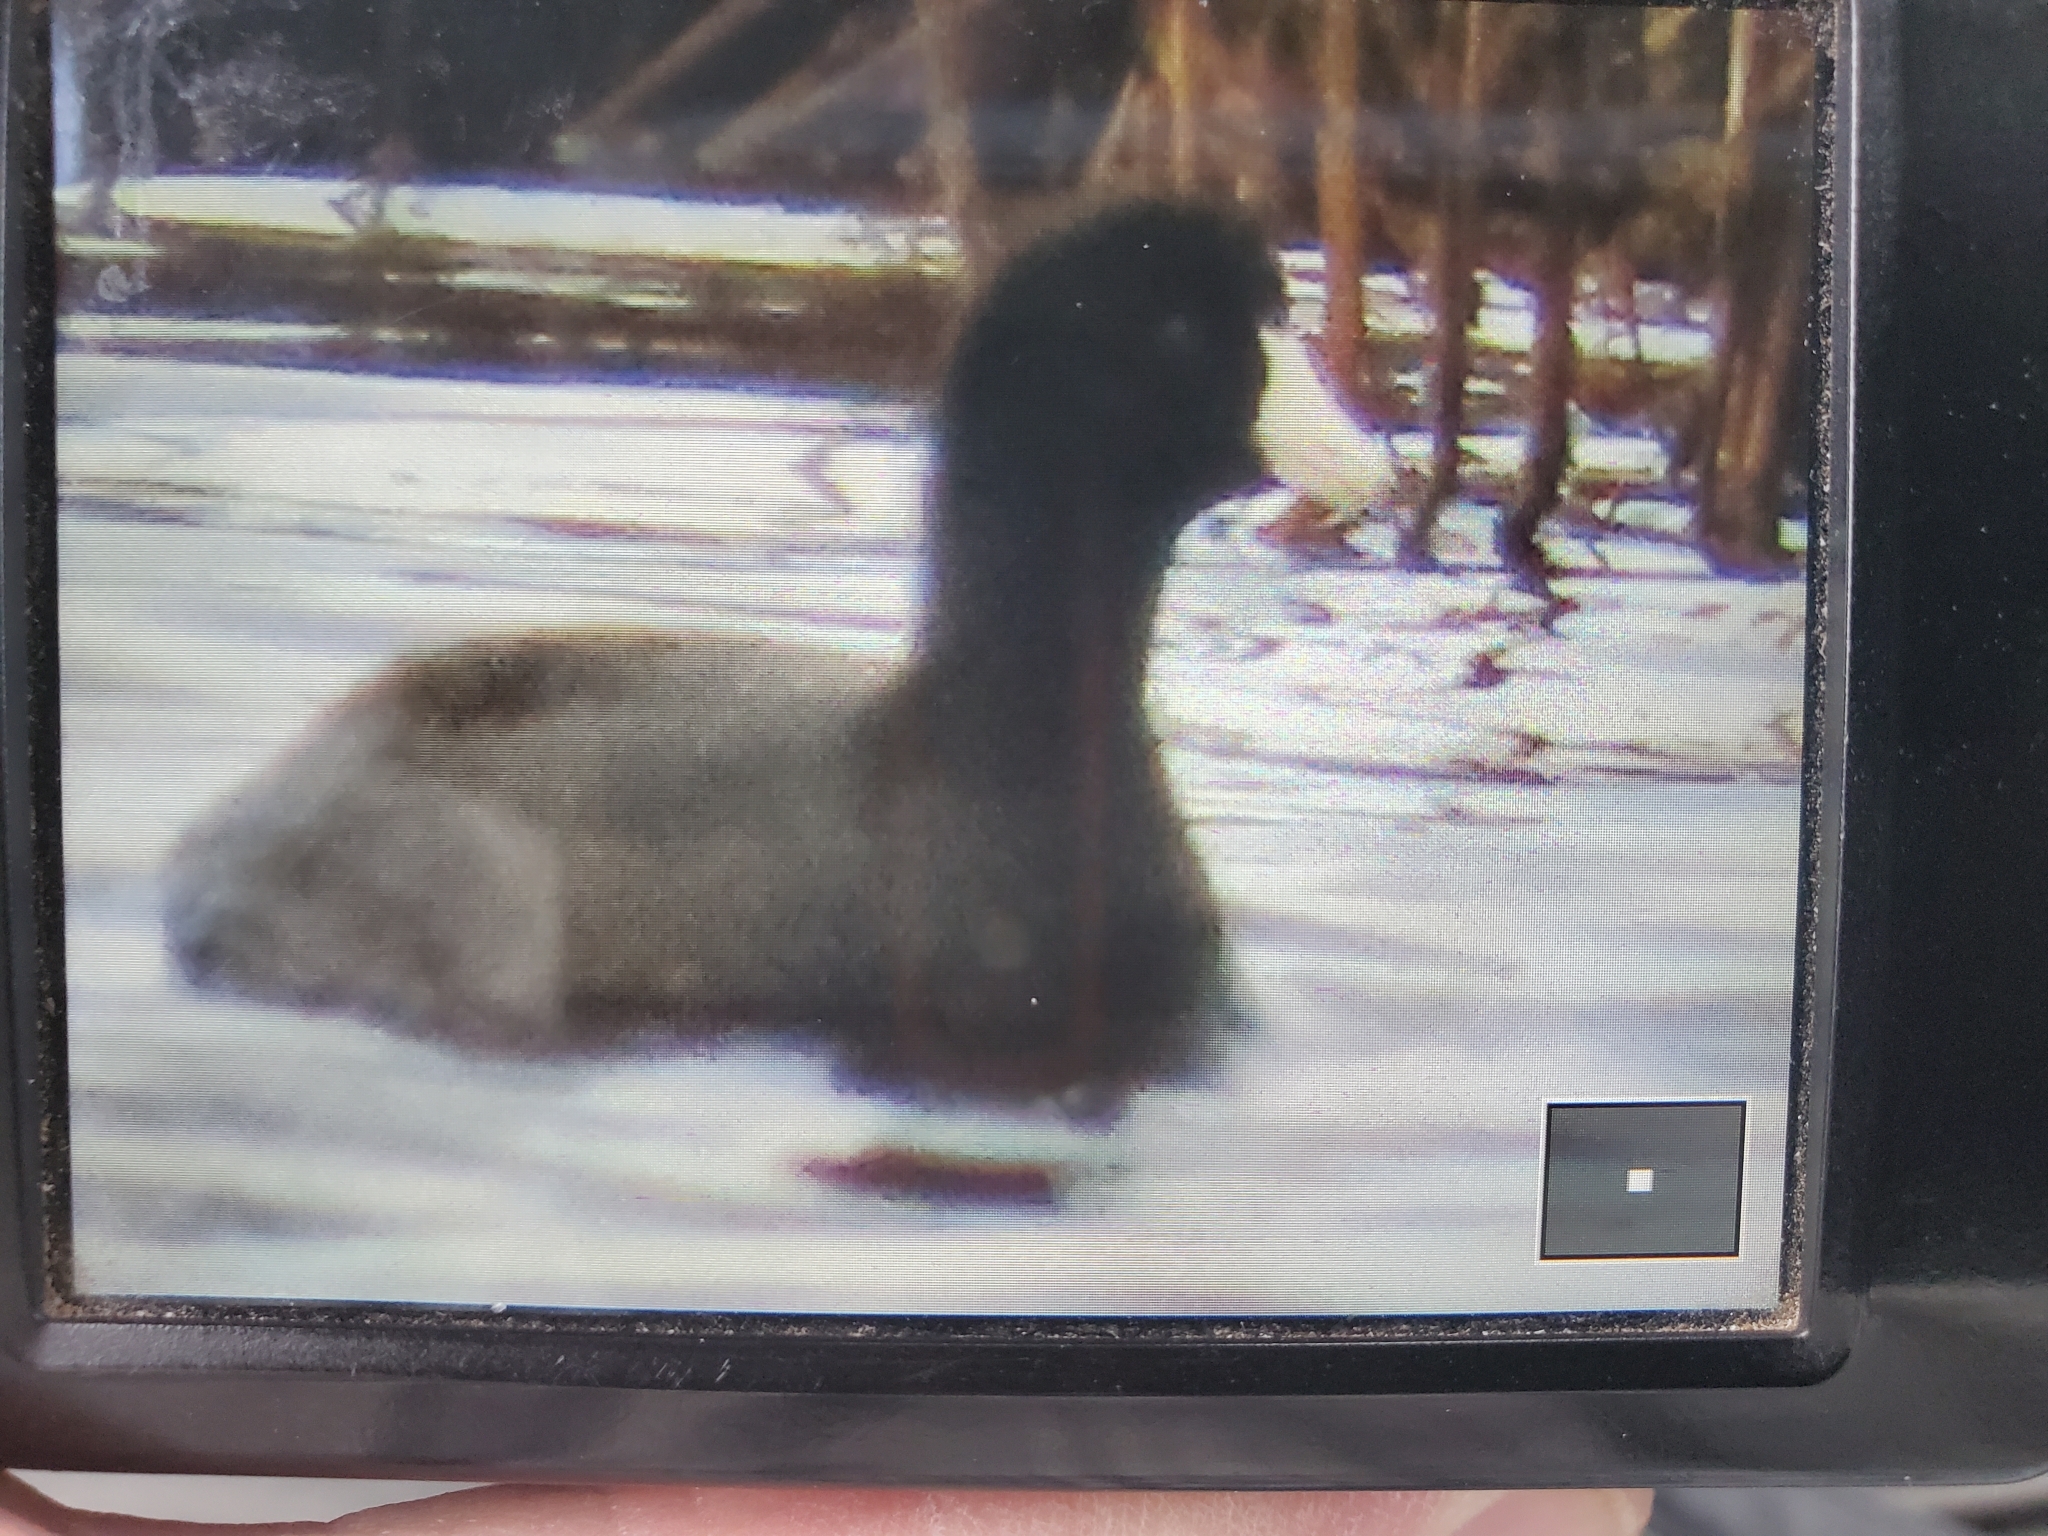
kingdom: Animalia
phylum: Chordata
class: Aves
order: Gruiformes
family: Rallidae
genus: Fulica
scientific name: Fulica americana
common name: American coot
